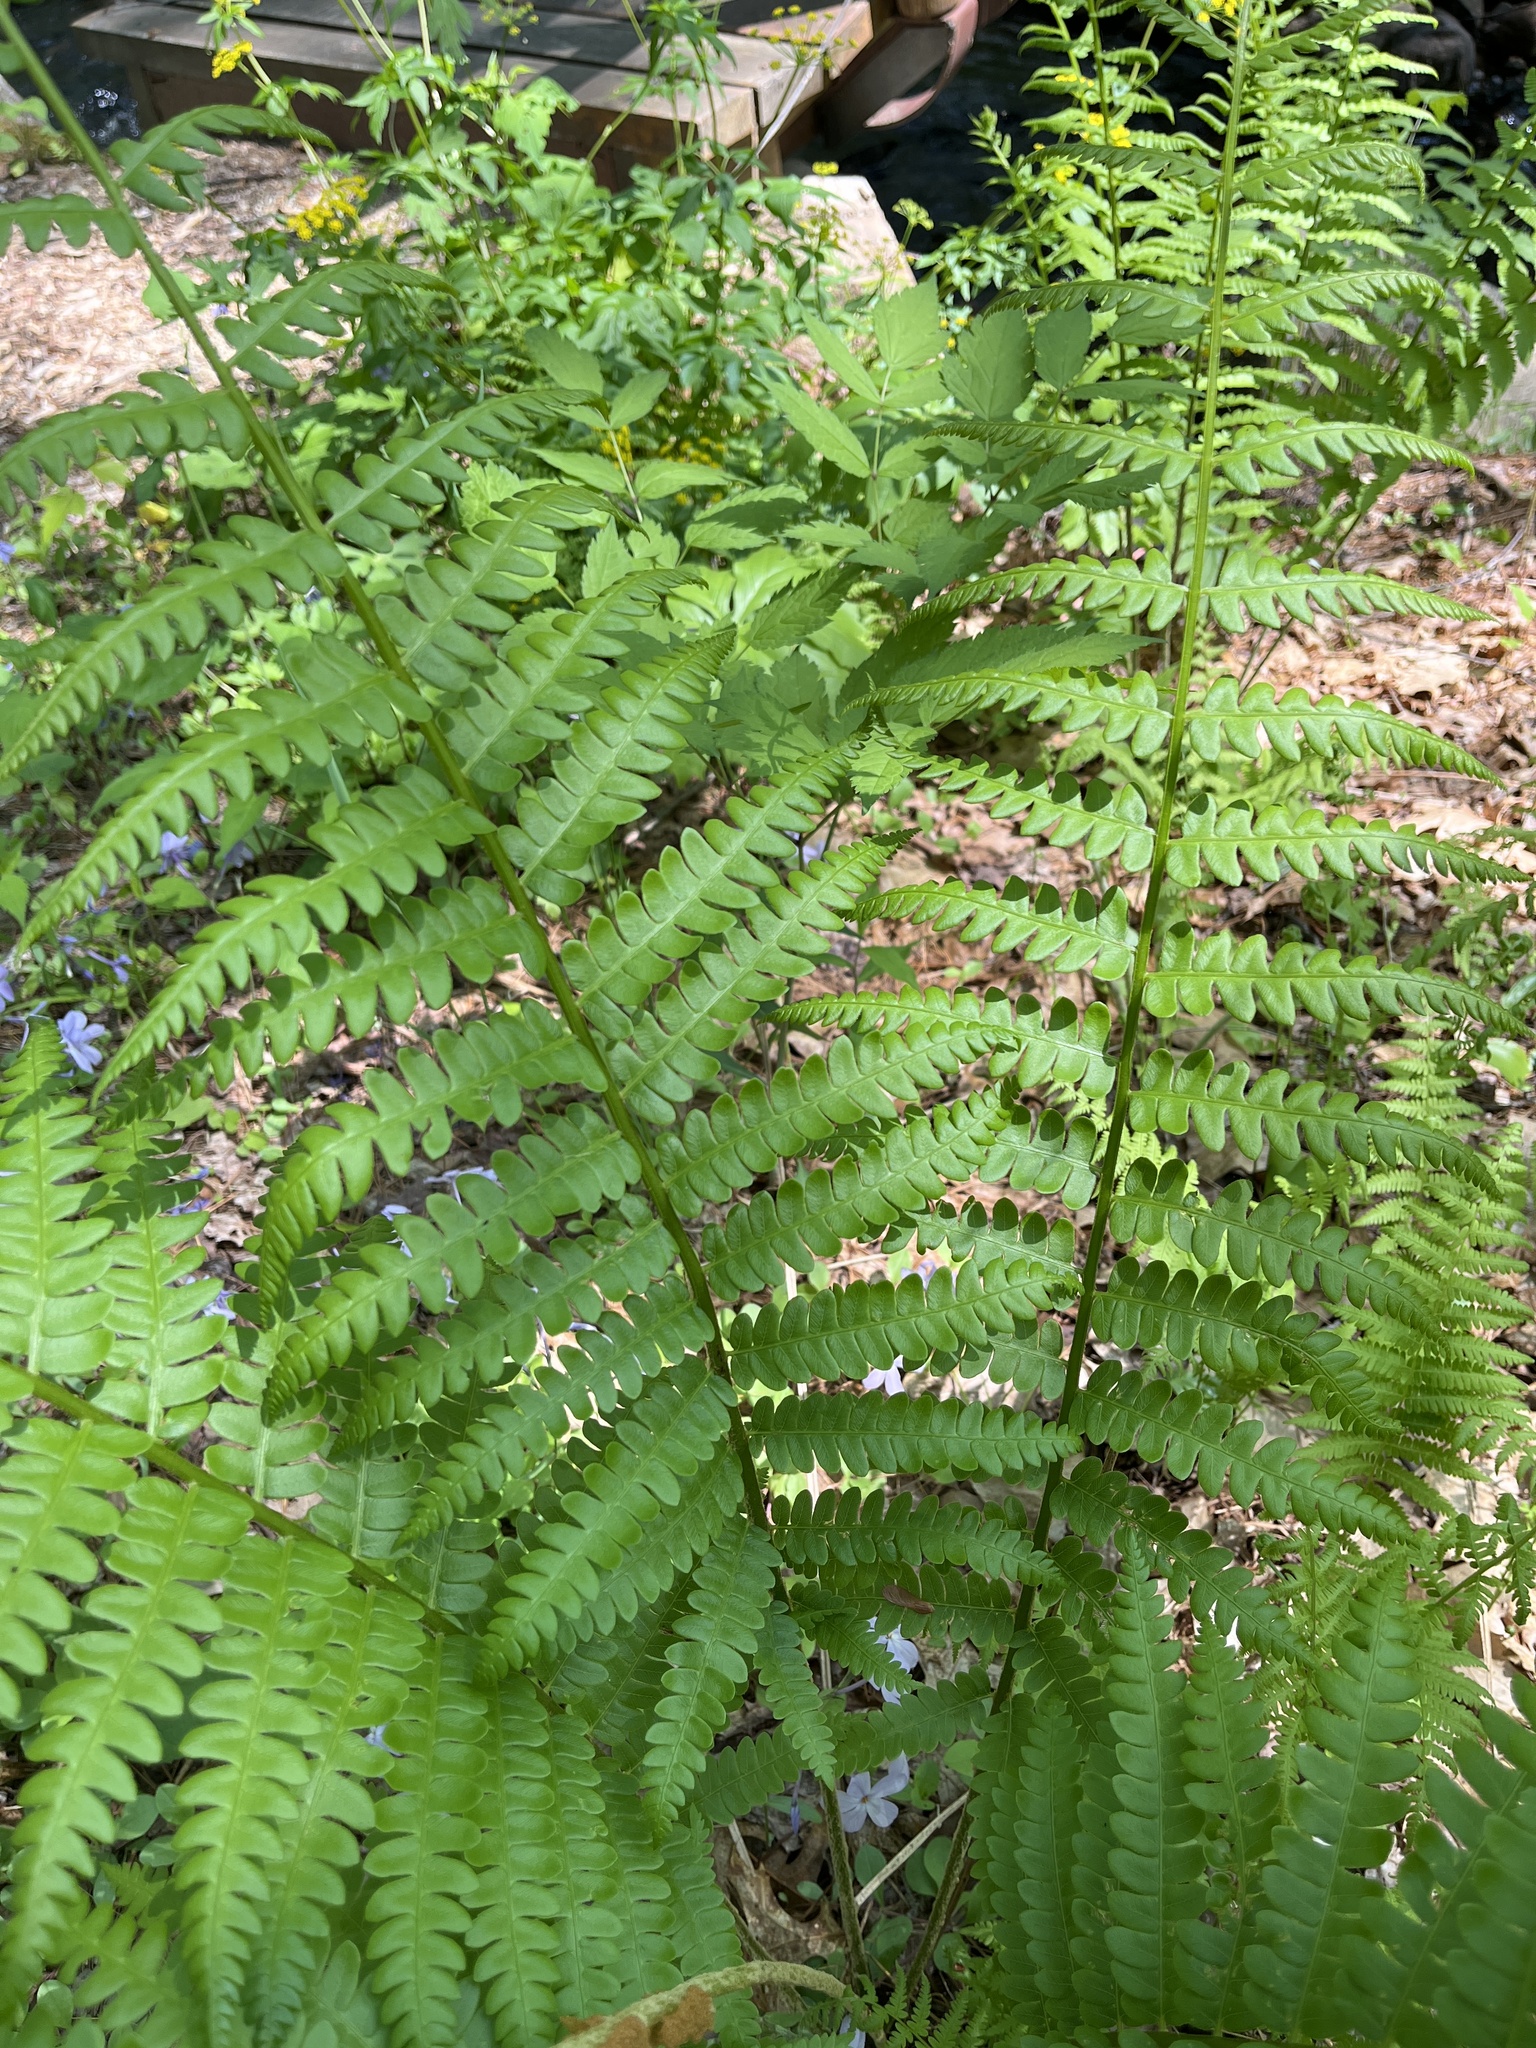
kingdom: Plantae
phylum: Tracheophyta
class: Polypodiopsida
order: Osmundales
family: Osmundaceae
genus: Osmundastrum
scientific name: Osmundastrum cinnamomeum
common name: Cinnamon fern
